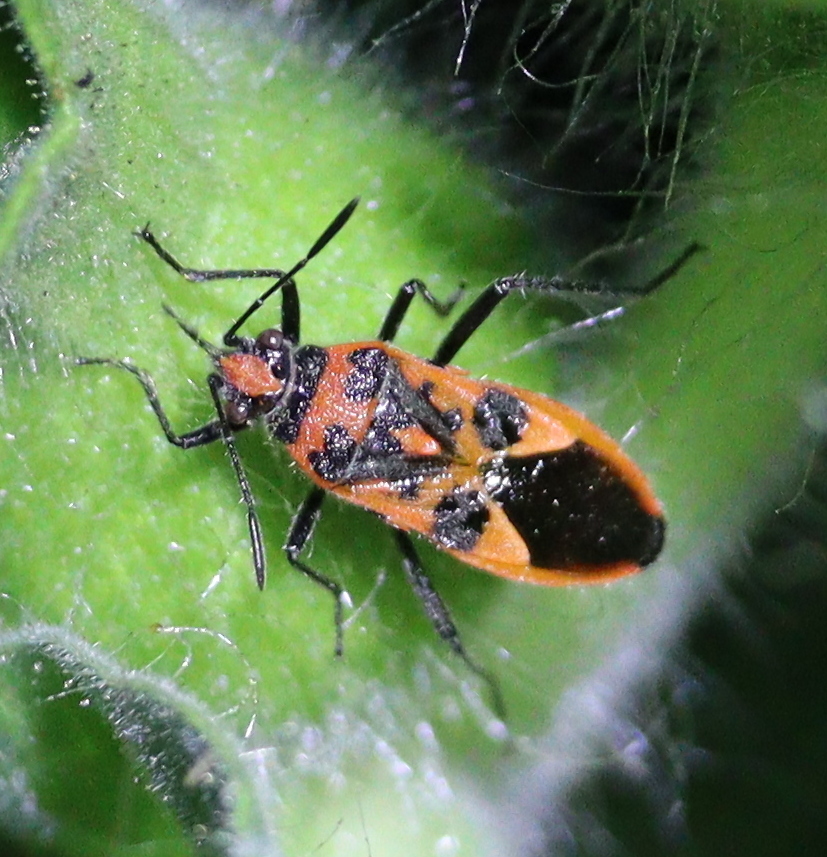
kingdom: Animalia
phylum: Arthropoda
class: Insecta
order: Hemiptera
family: Rhopalidae
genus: Corizus
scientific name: Corizus hyoscyami
